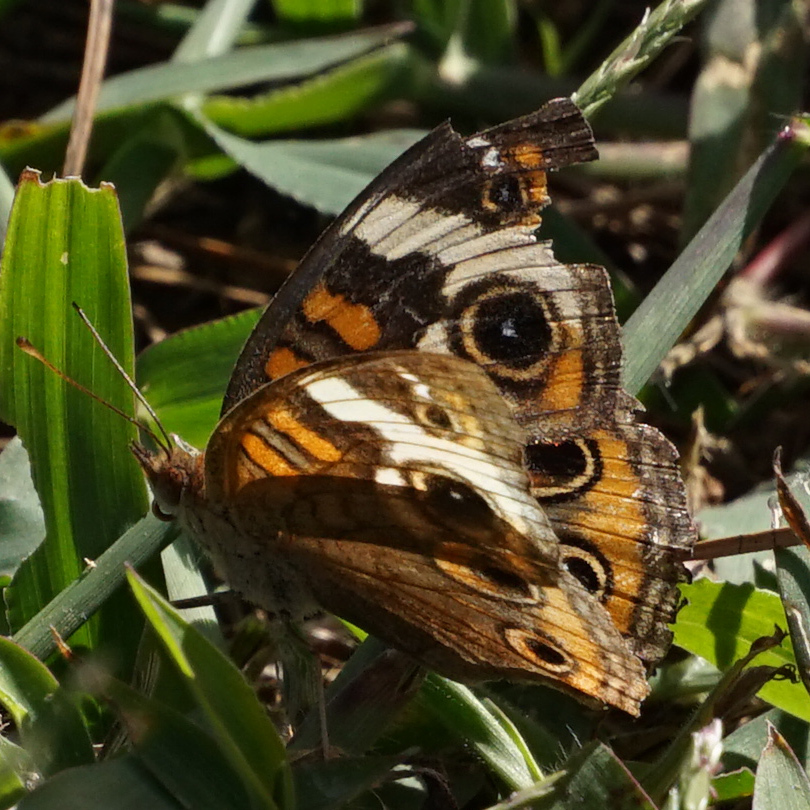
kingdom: Animalia
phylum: Arthropoda
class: Insecta
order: Lepidoptera
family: Nymphalidae
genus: Junonia
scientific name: Junonia coenia
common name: Common buckeye
